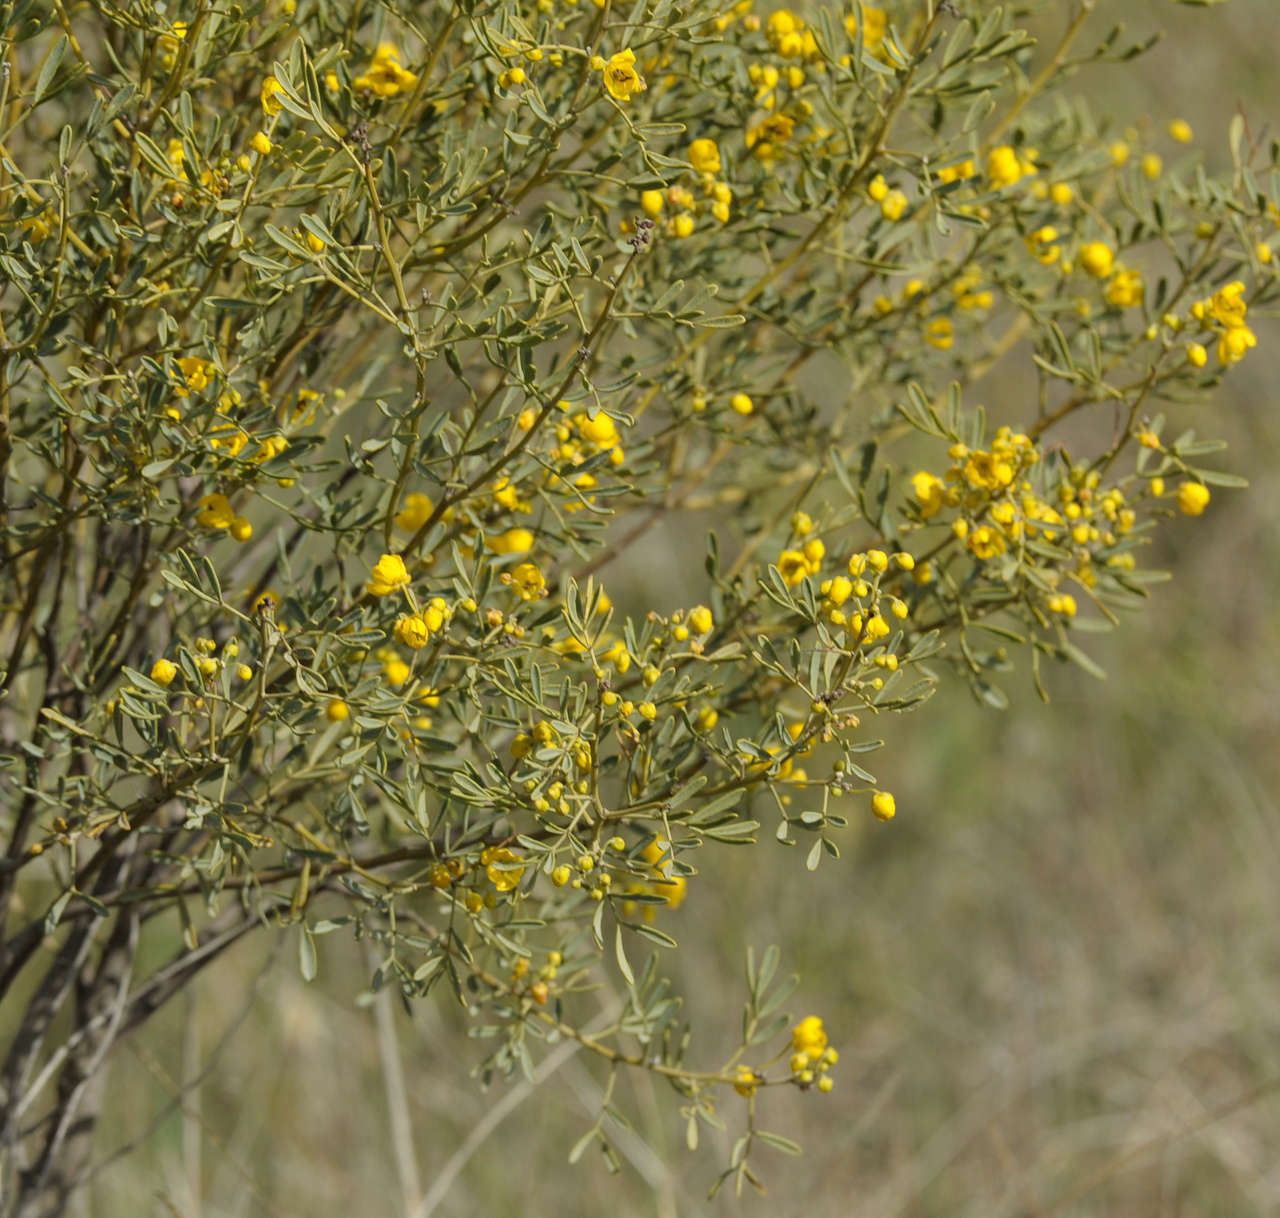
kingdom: Plantae
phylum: Tracheophyta
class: Magnoliopsida
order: Fabales
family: Fabaceae
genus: Senna
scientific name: Senna artemisioides
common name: Burnt-leaved acacia
